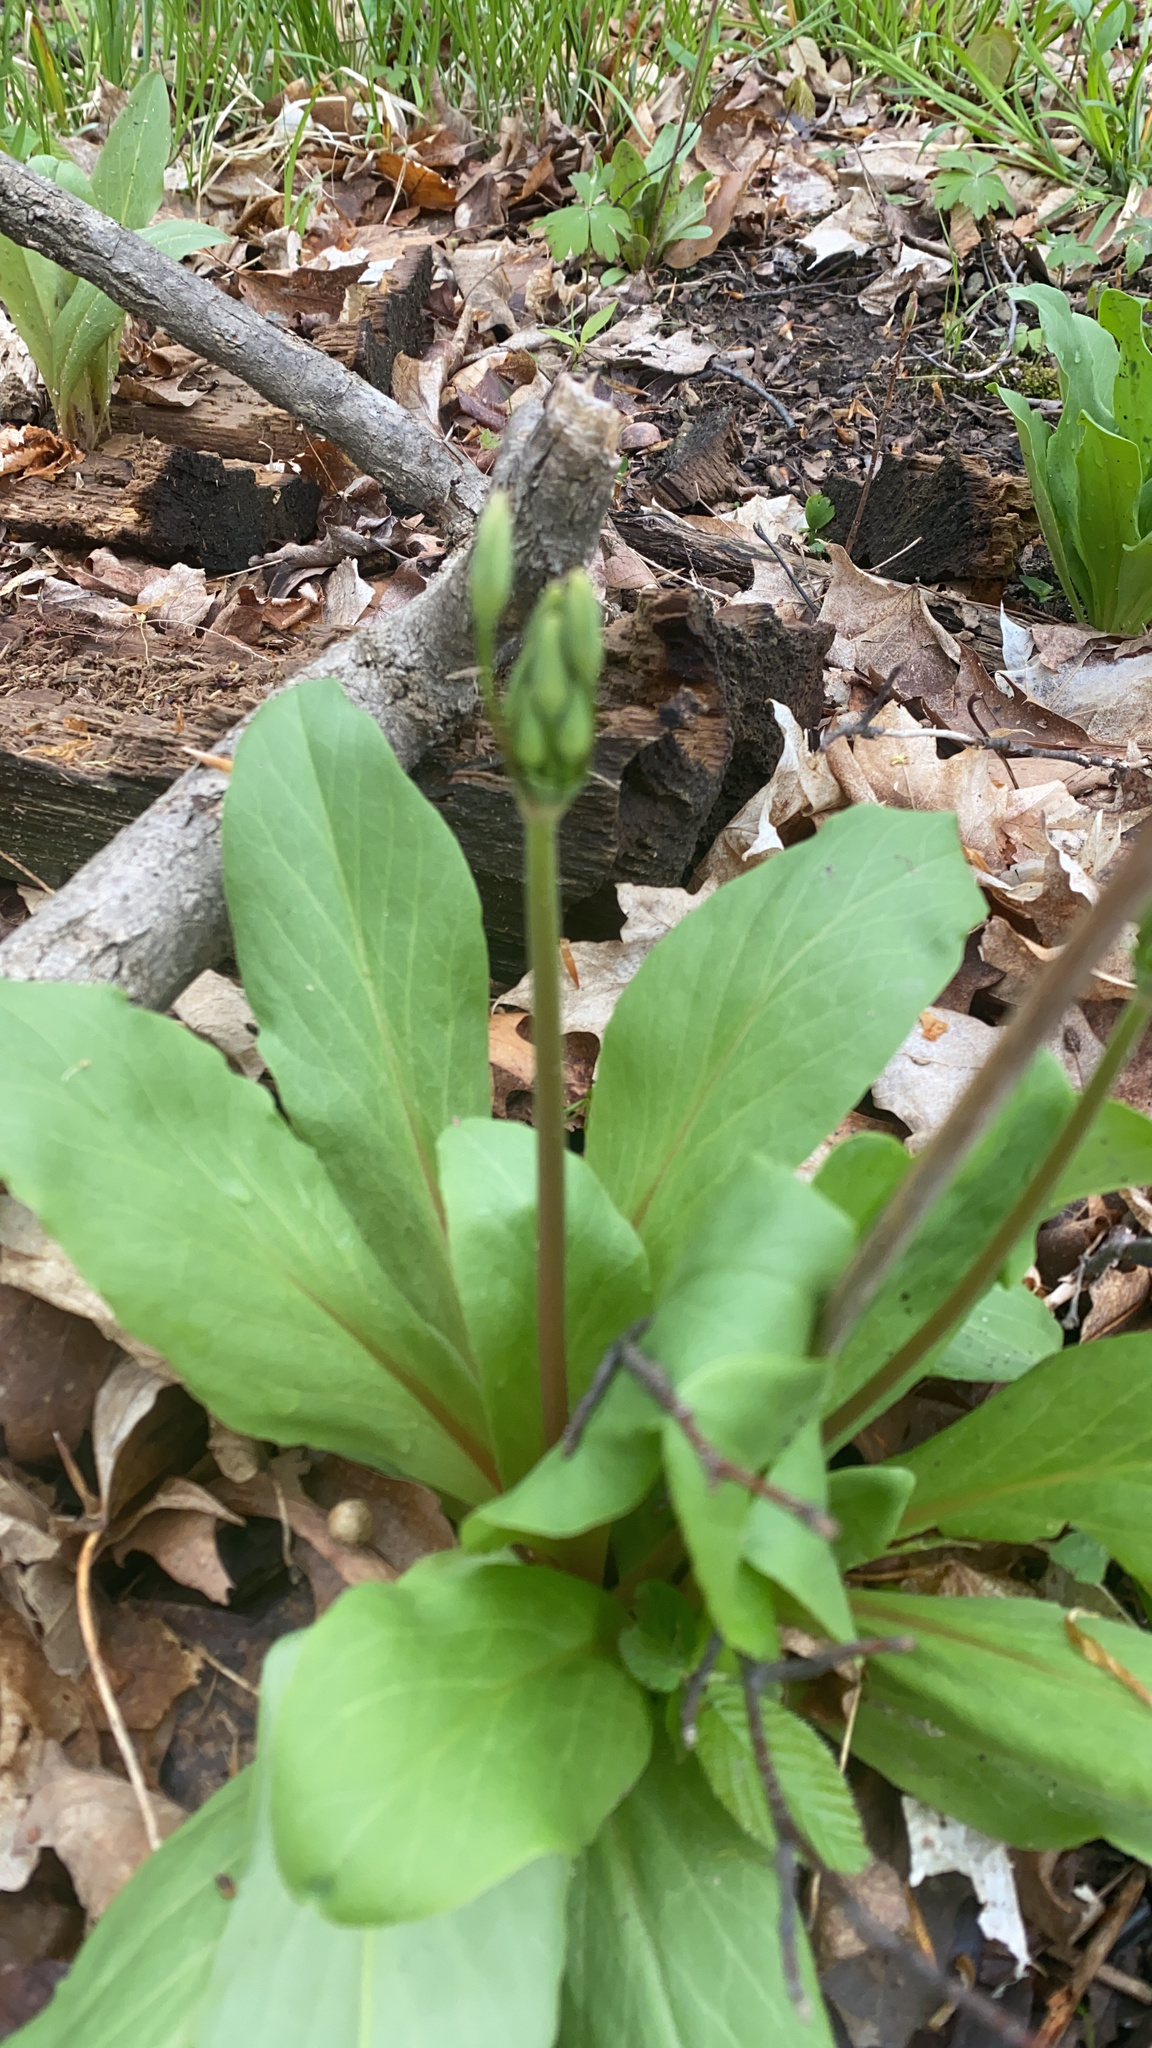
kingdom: Plantae
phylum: Tracheophyta
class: Magnoliopsida
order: Ericales
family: Primulaceae
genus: Dodecatheon
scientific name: Dodecatheon meadia
